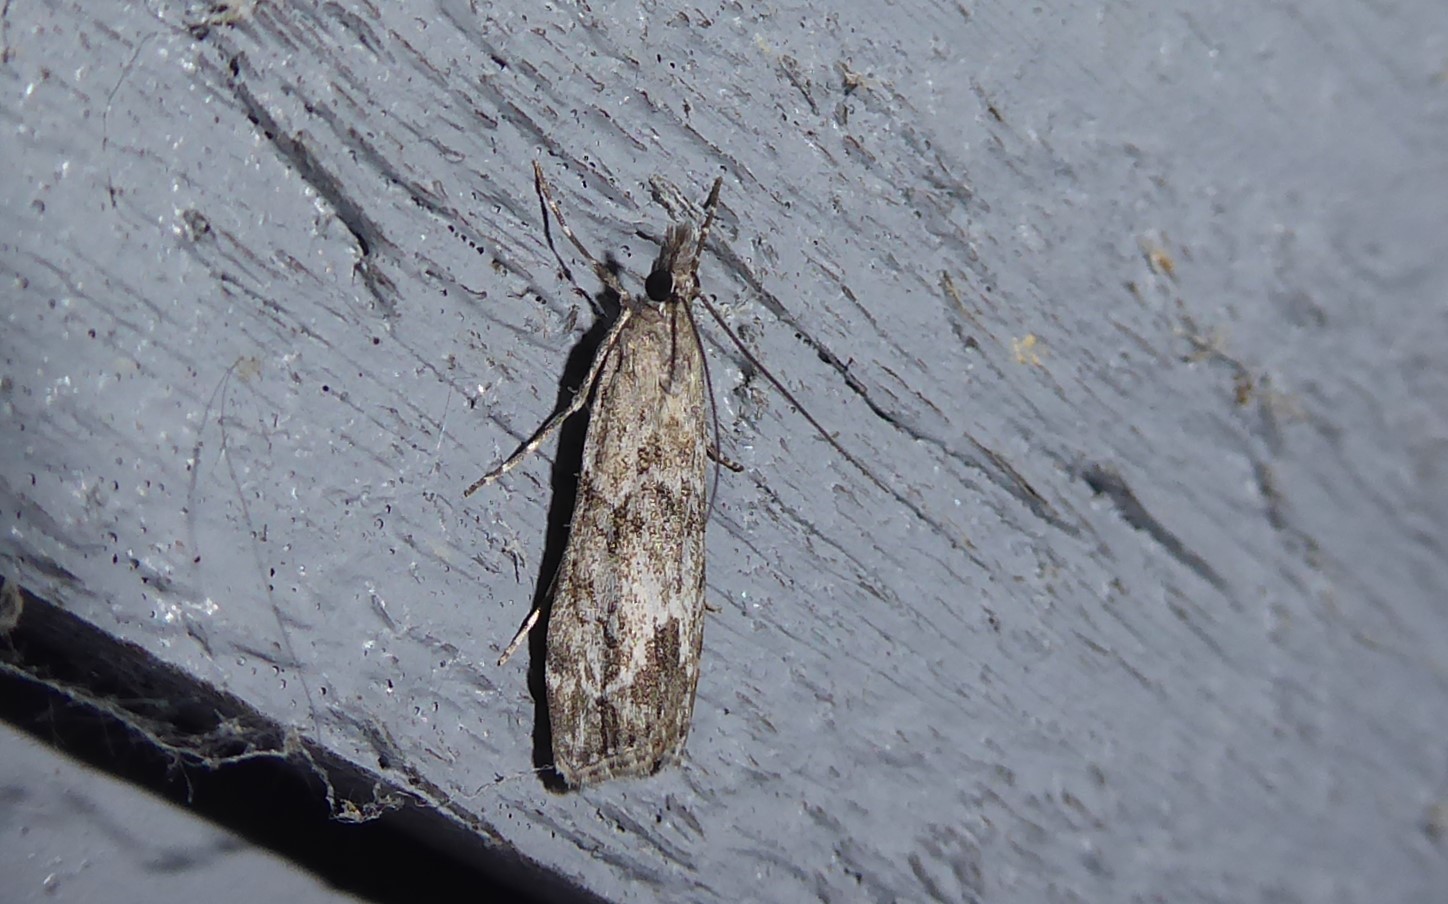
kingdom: Animalia
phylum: Arthropoda
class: Insecta
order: Lepidoptera
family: Crambidae
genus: Eudonia
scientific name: Eudonia rakaiensis
